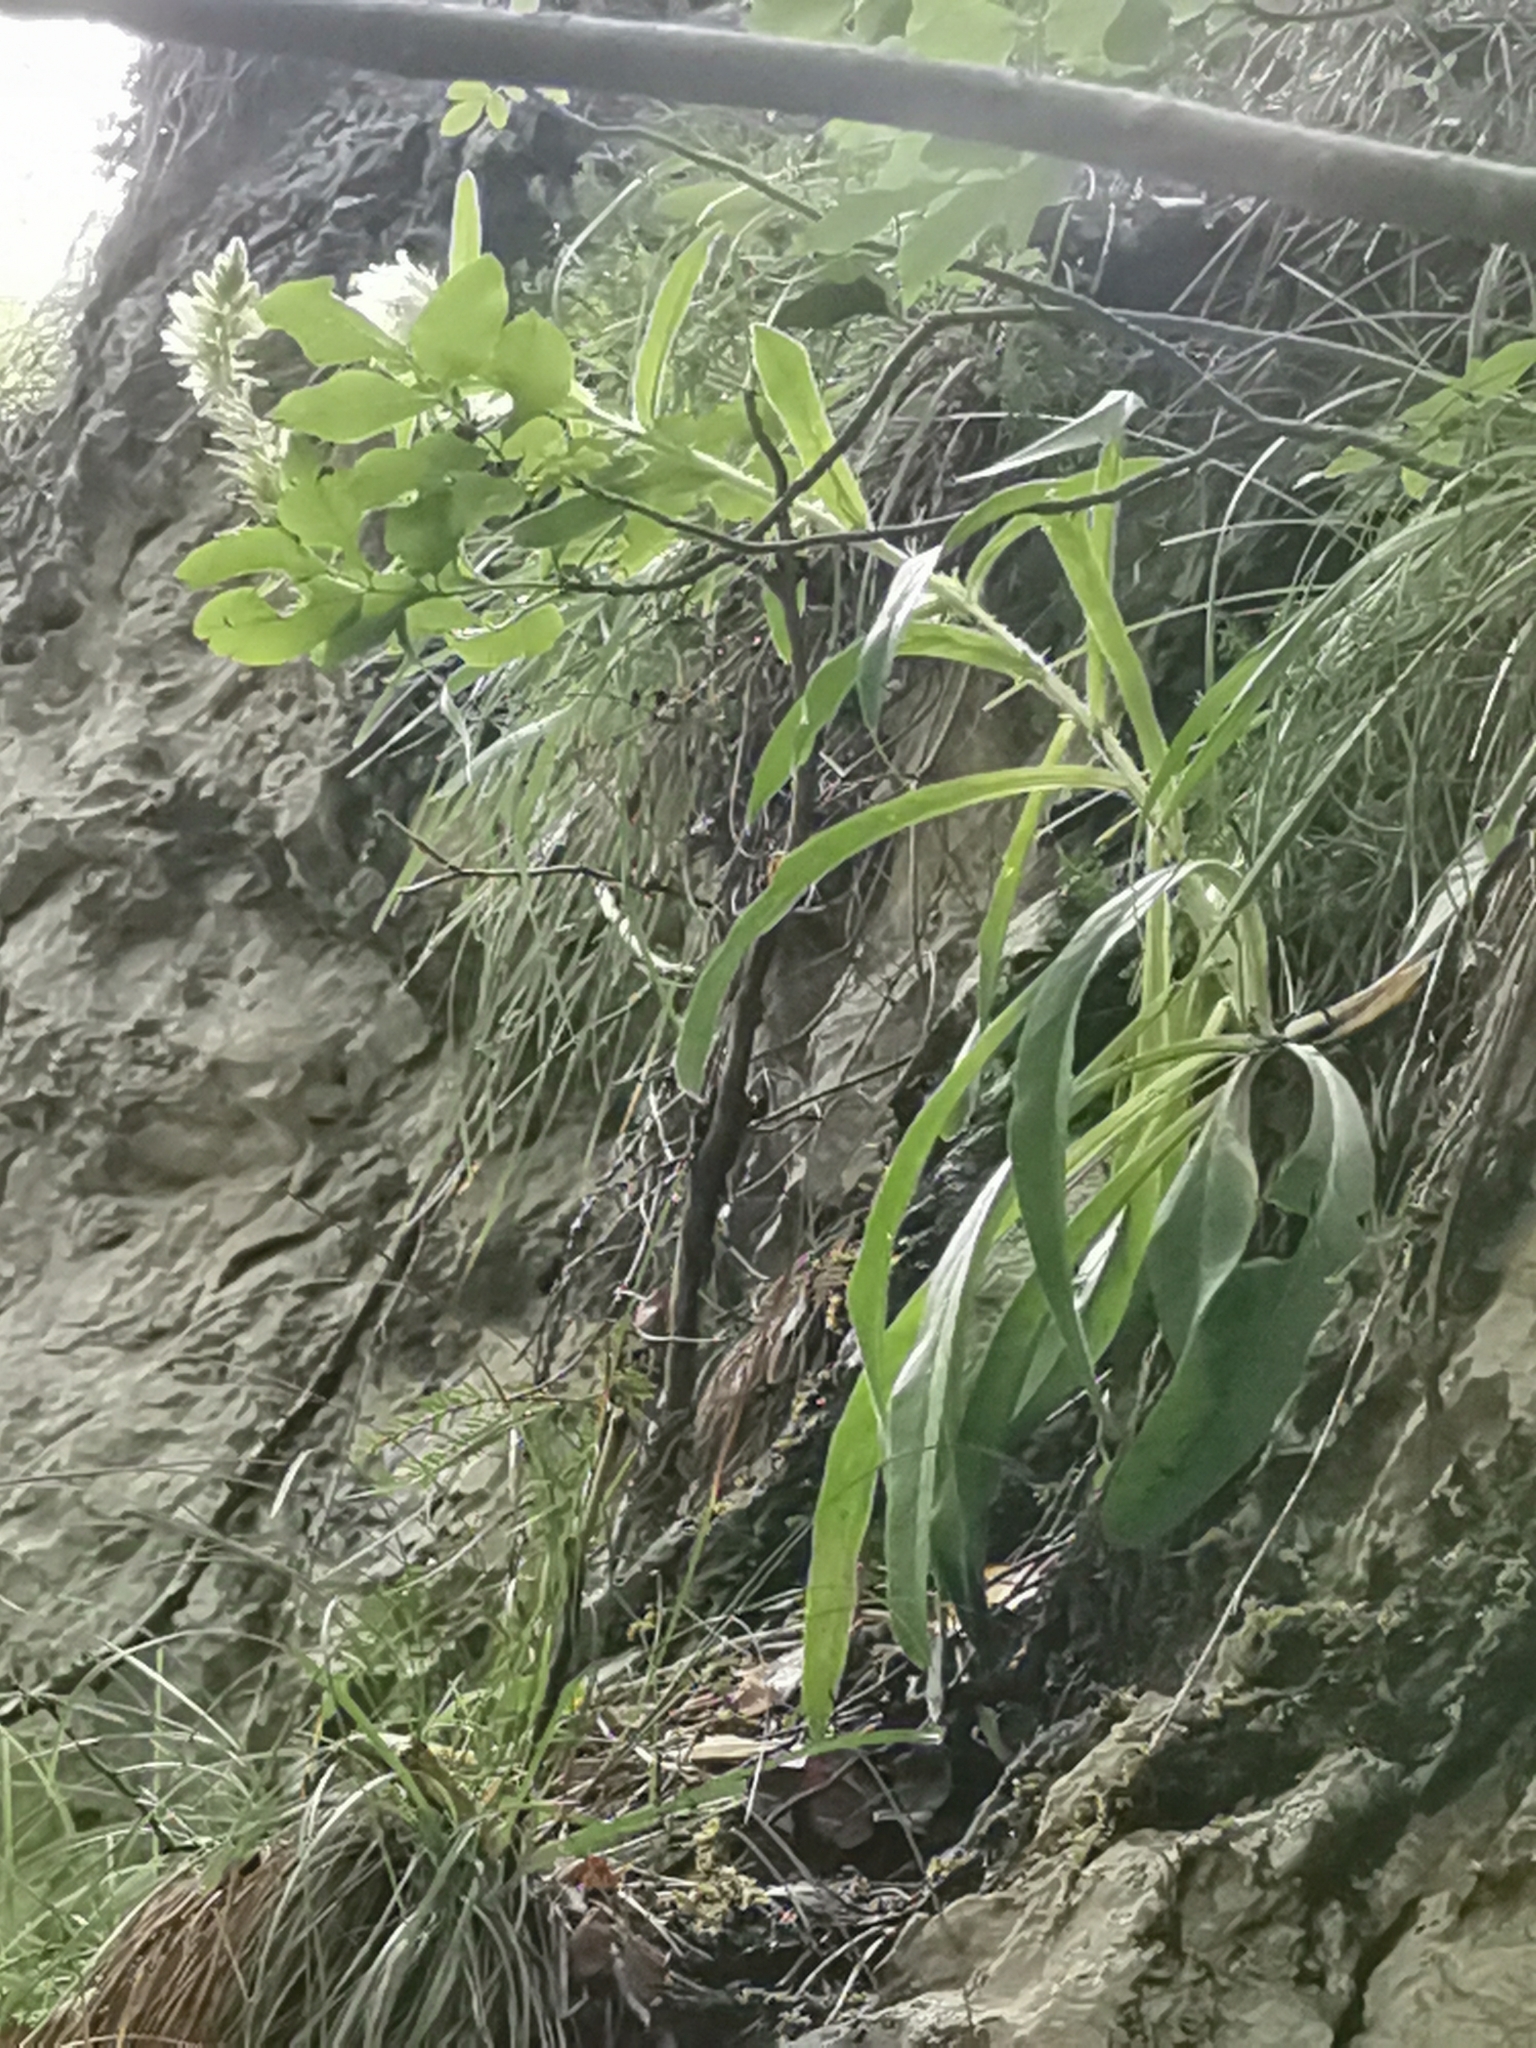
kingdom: Plantae
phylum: Tracheophyta
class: Magnoliopsida
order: Asterales
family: Campanulaceae
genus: Campanula
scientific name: Campanula thyrsoides
